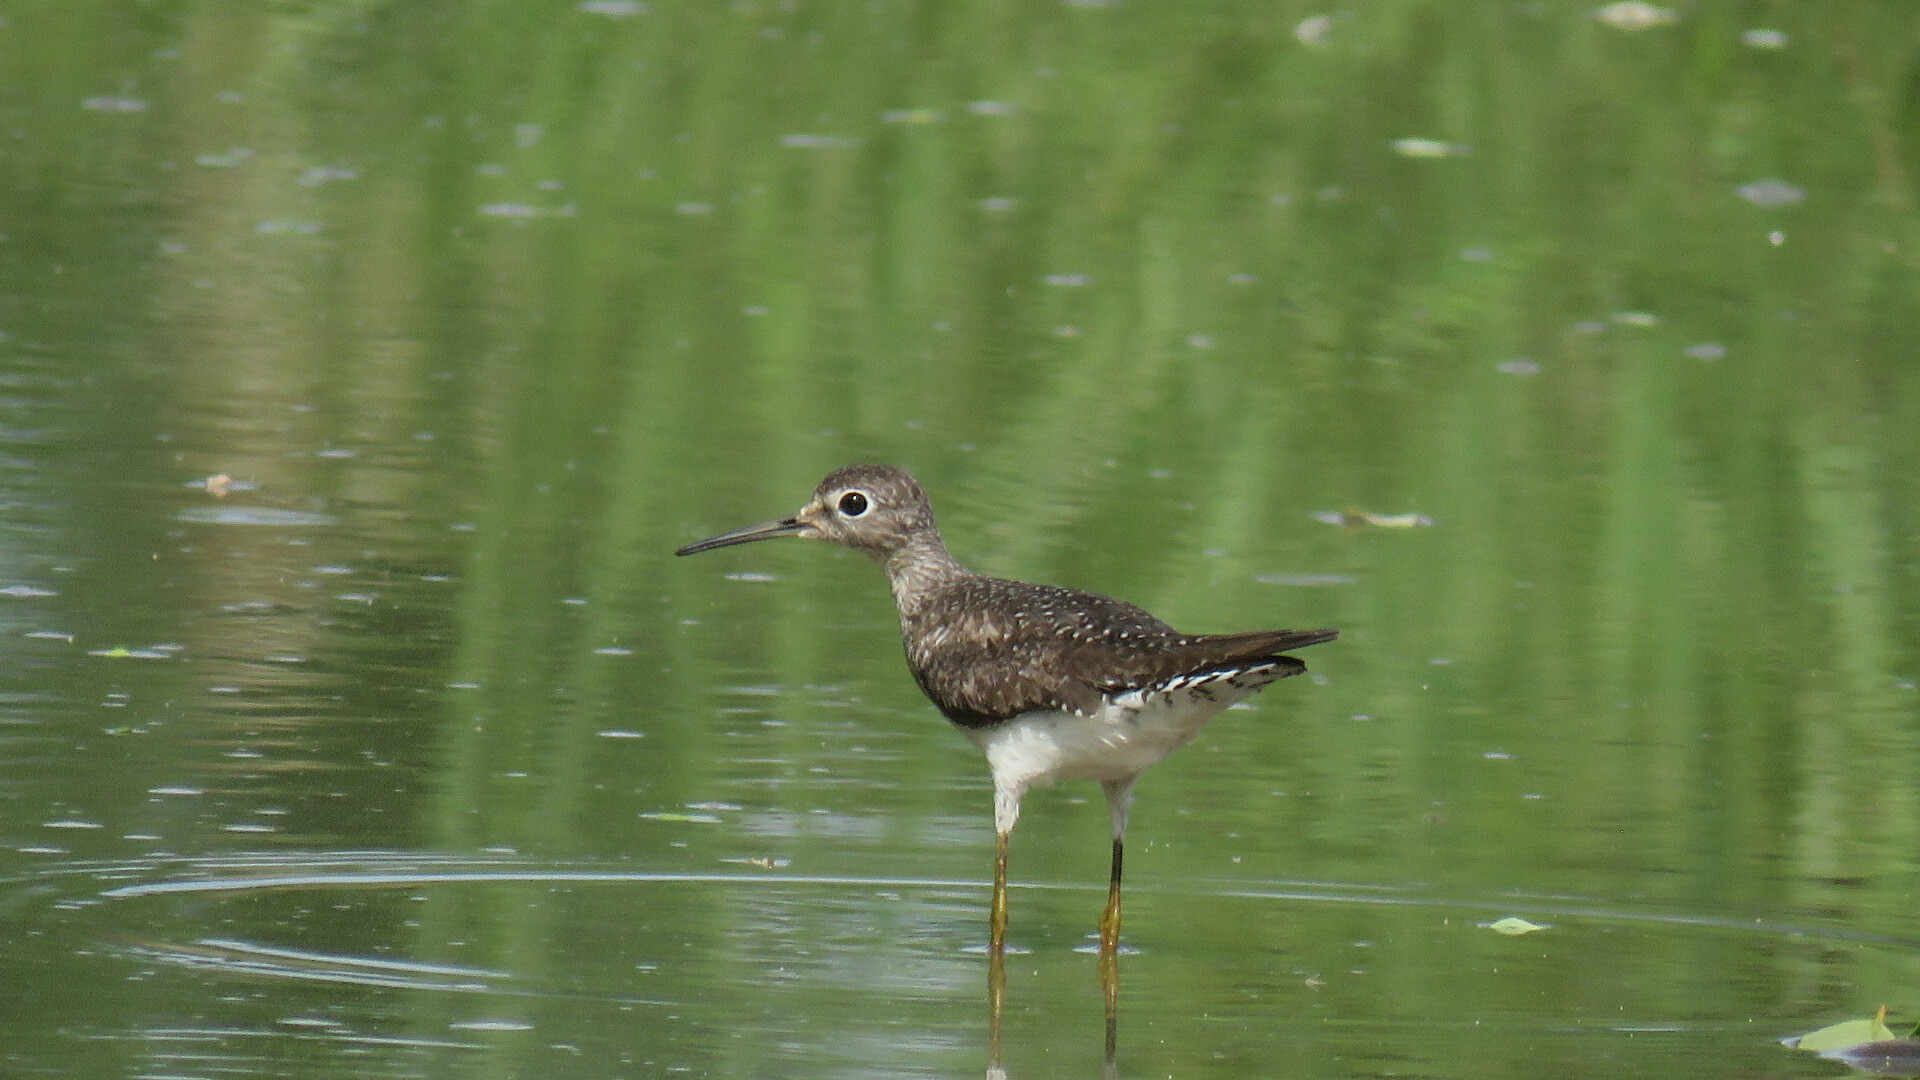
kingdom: Animalia
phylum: Chordata
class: Aves
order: Charadriiformes
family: Scolopacidae
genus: Tringa
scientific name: Tringa solitaria
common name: Solitary sandpiper
